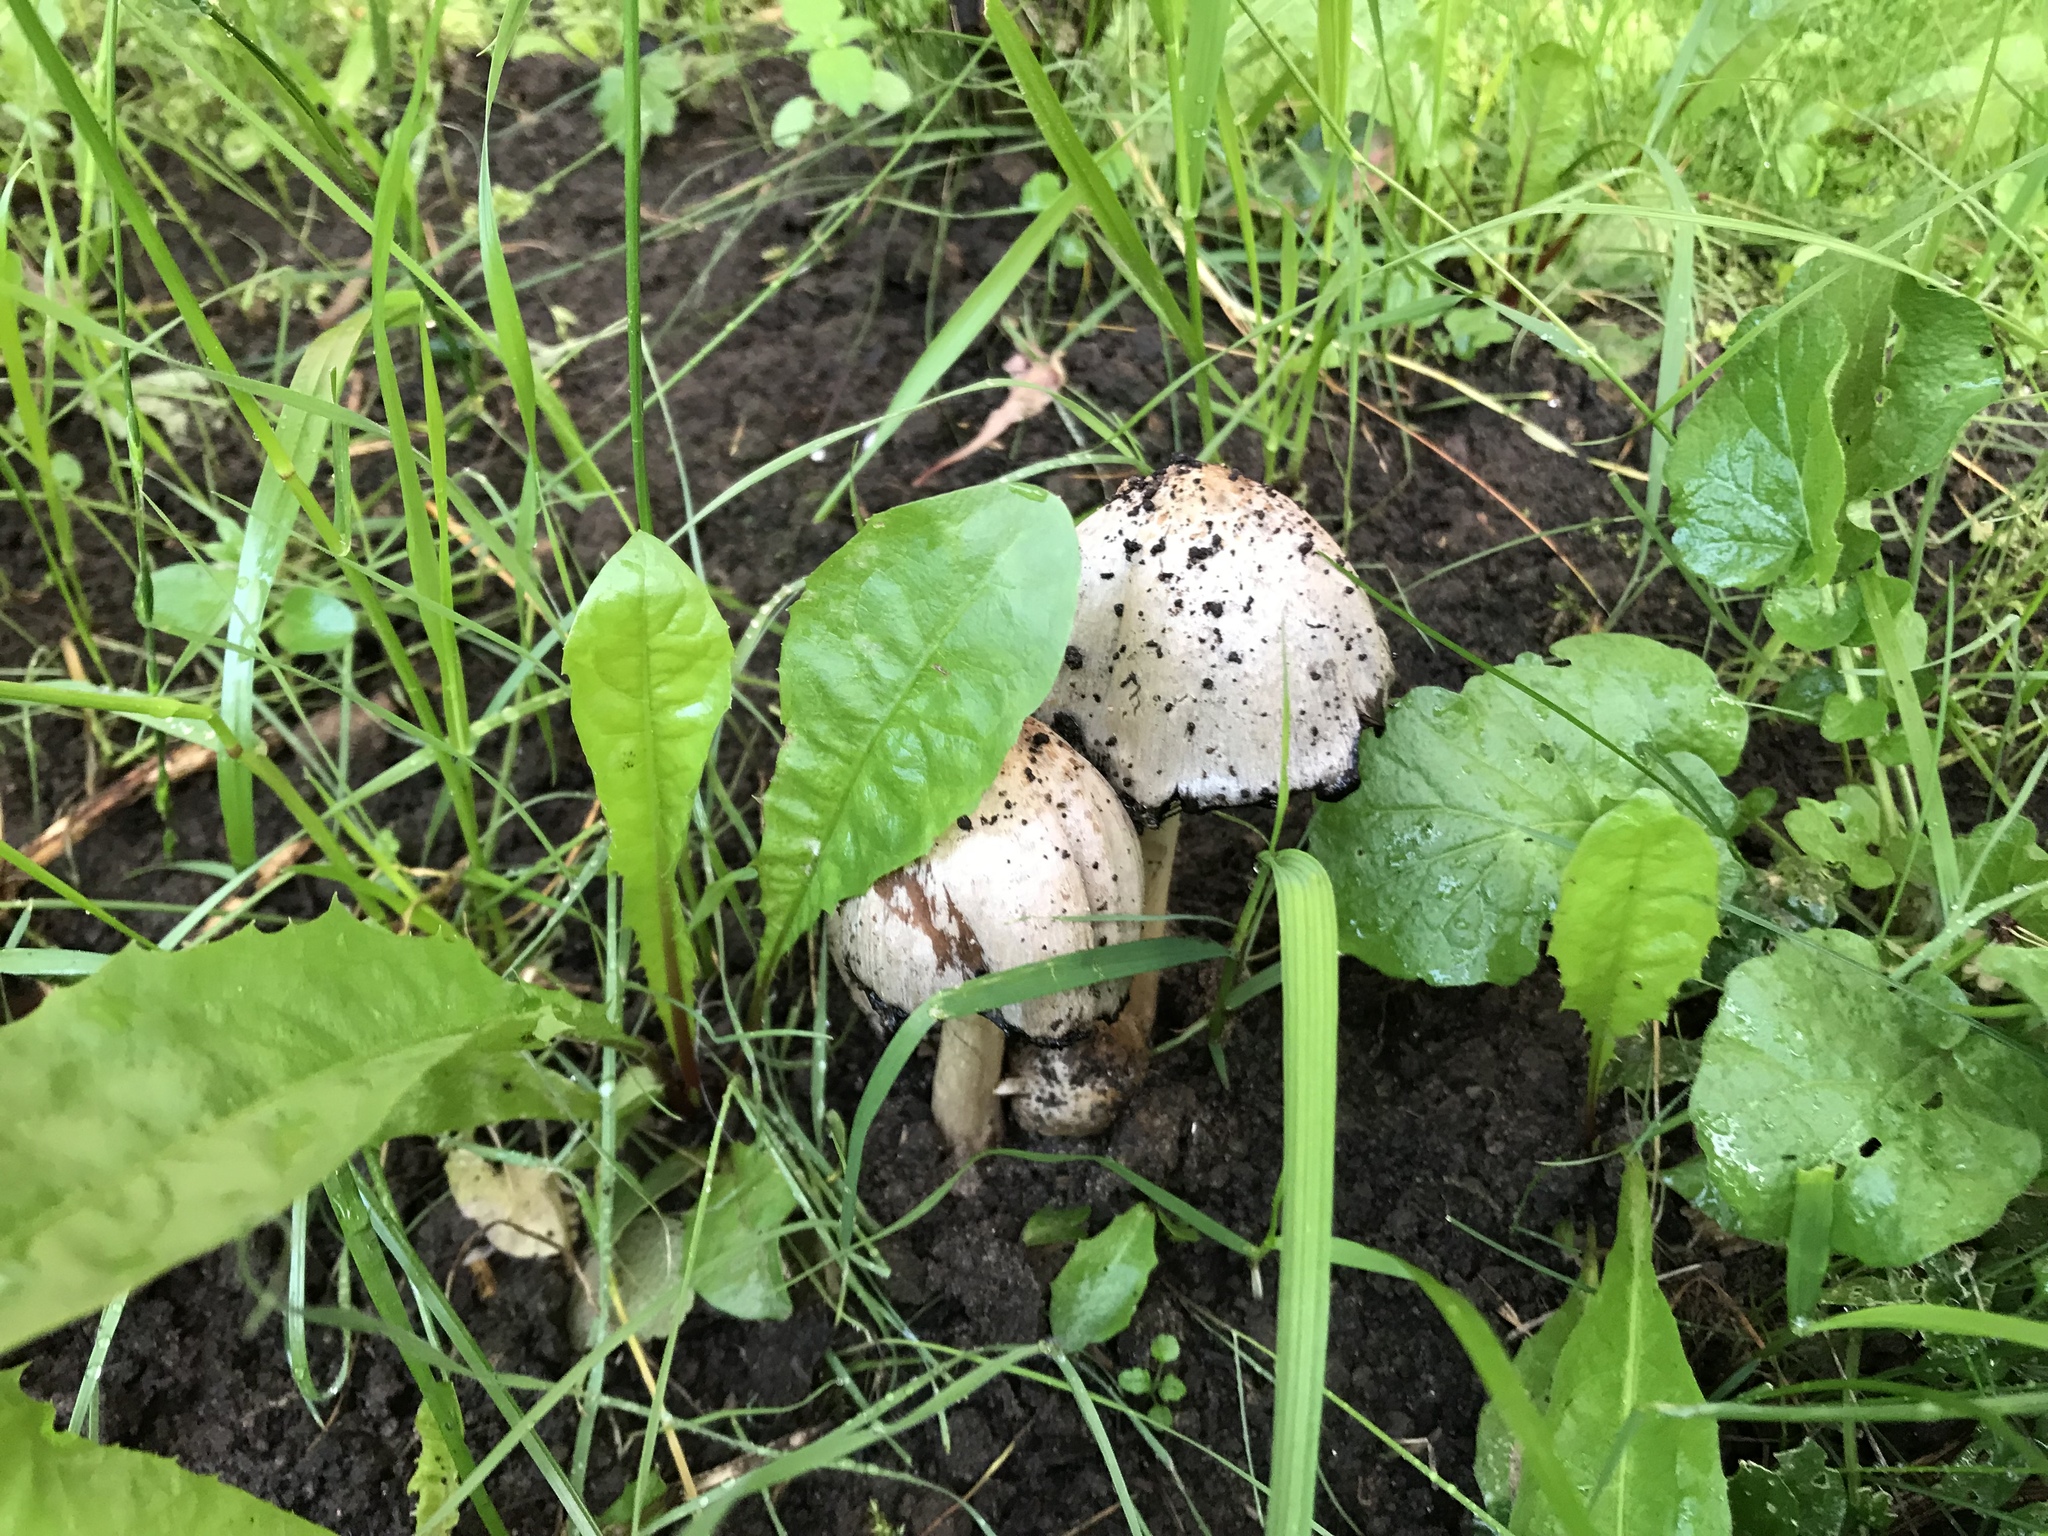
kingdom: Fungi
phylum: Basidiomycota
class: Agaricomycetes
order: Agaricales
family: Psathyrellaceae
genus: Coprinopsis
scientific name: Coprinopsis atramentaria
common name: Common ink-cap
